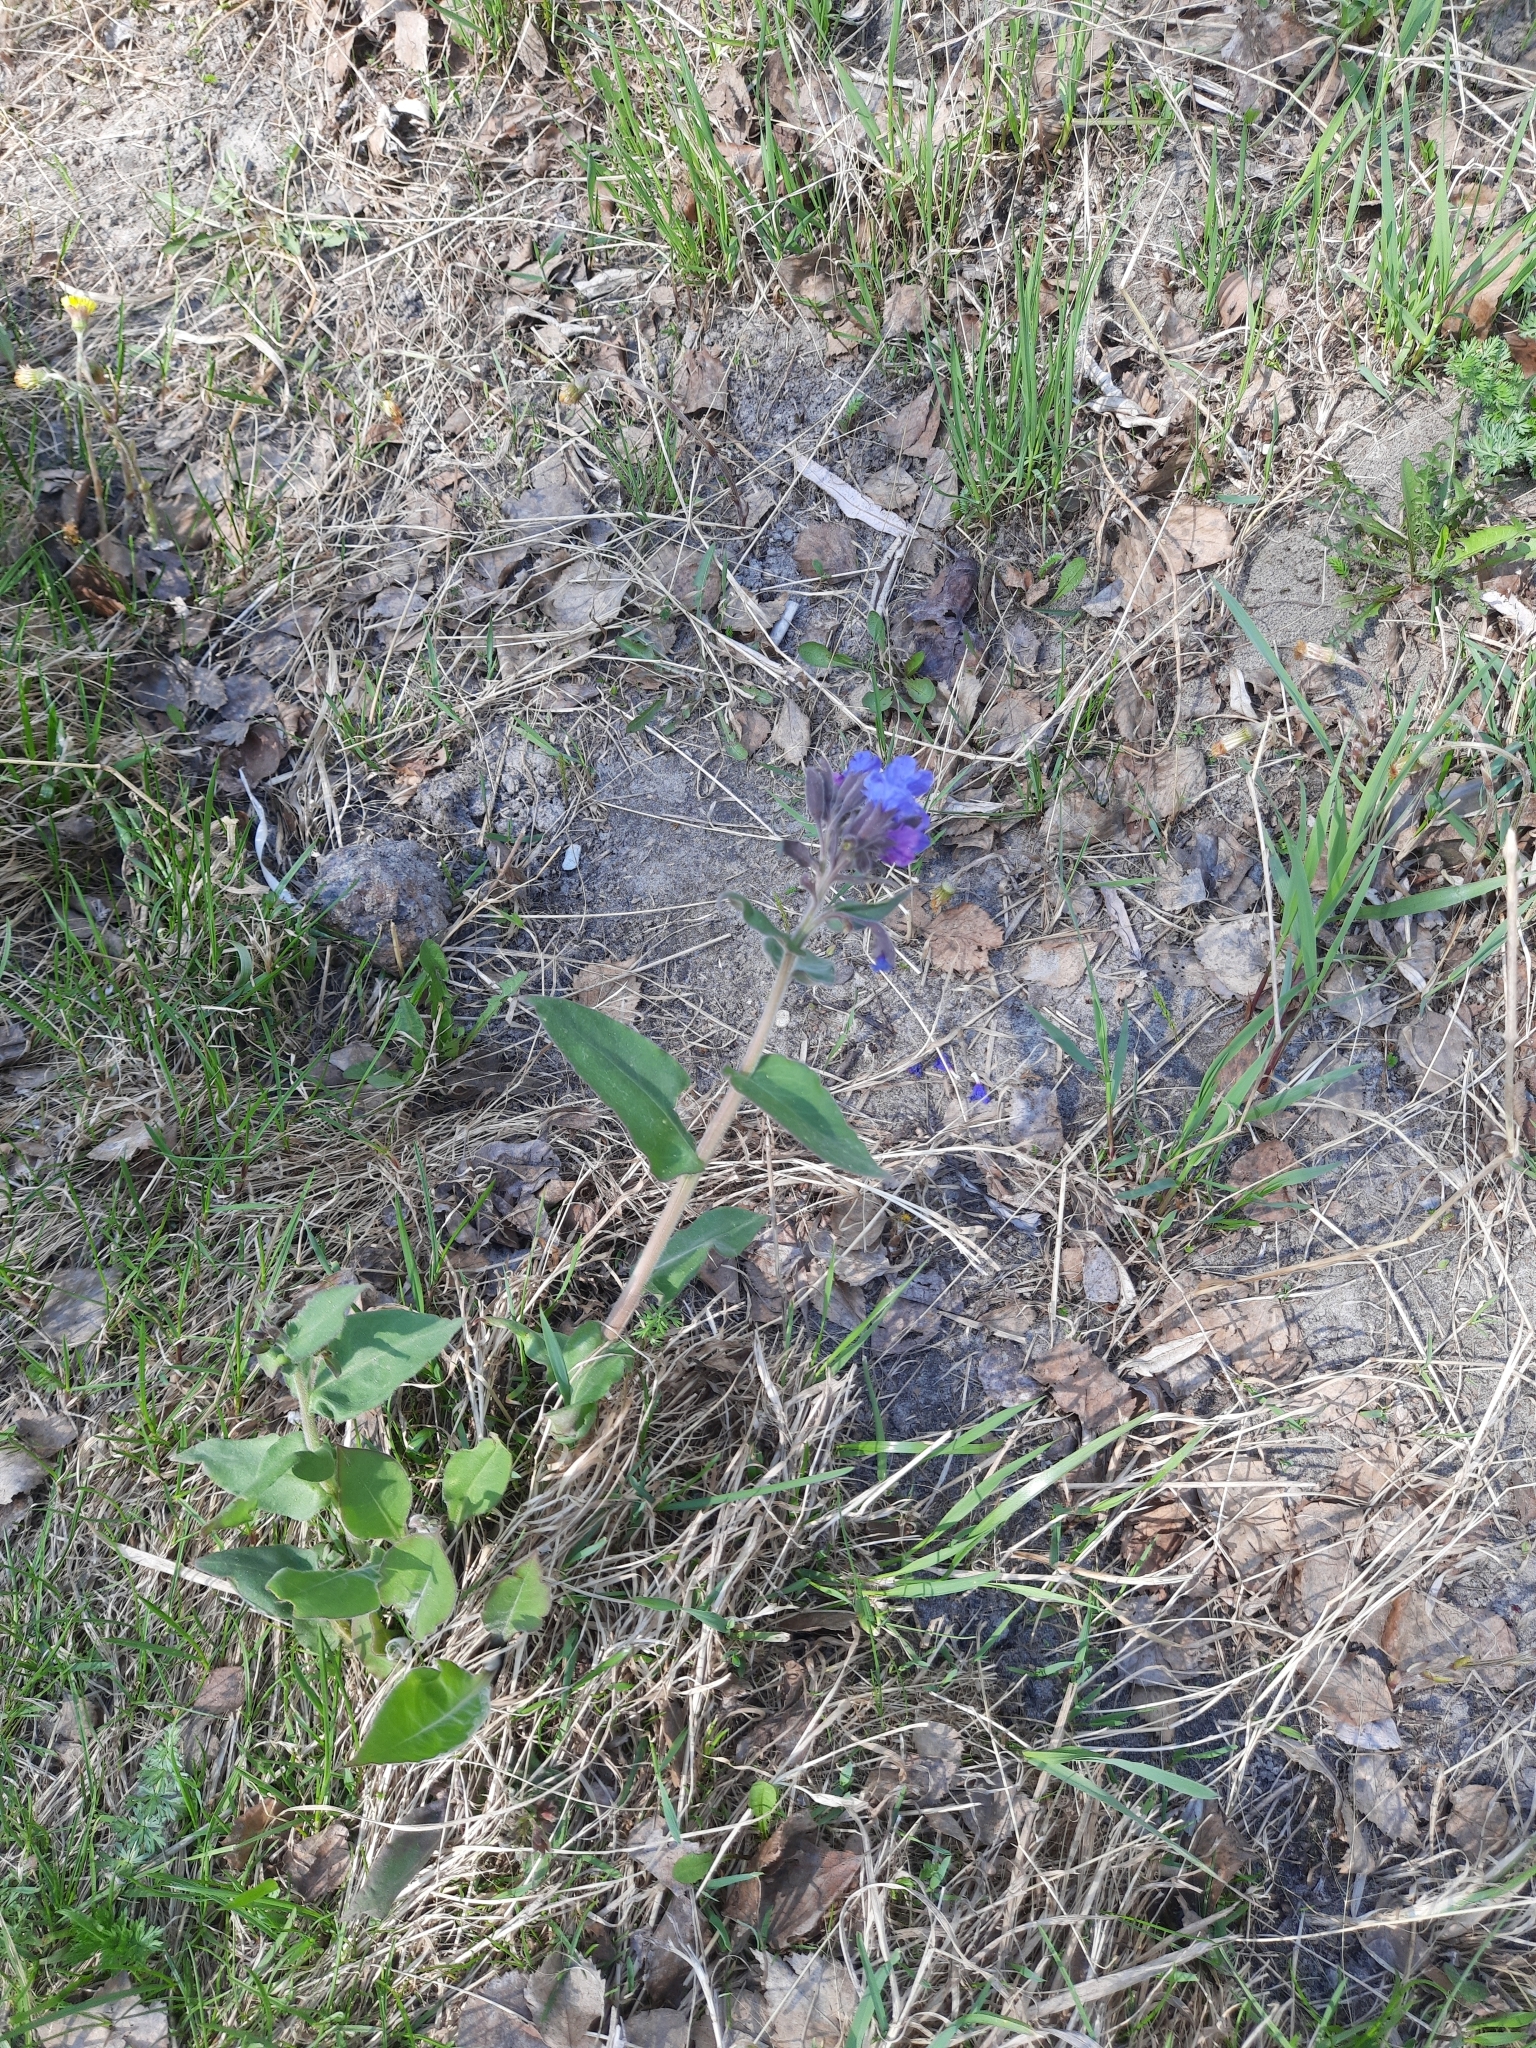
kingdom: Plantae
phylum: Tracheophyta
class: Magnoliopsida
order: Boraginales
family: Boraginaceae
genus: Pulmonaria
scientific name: Pulmonaria mollis
